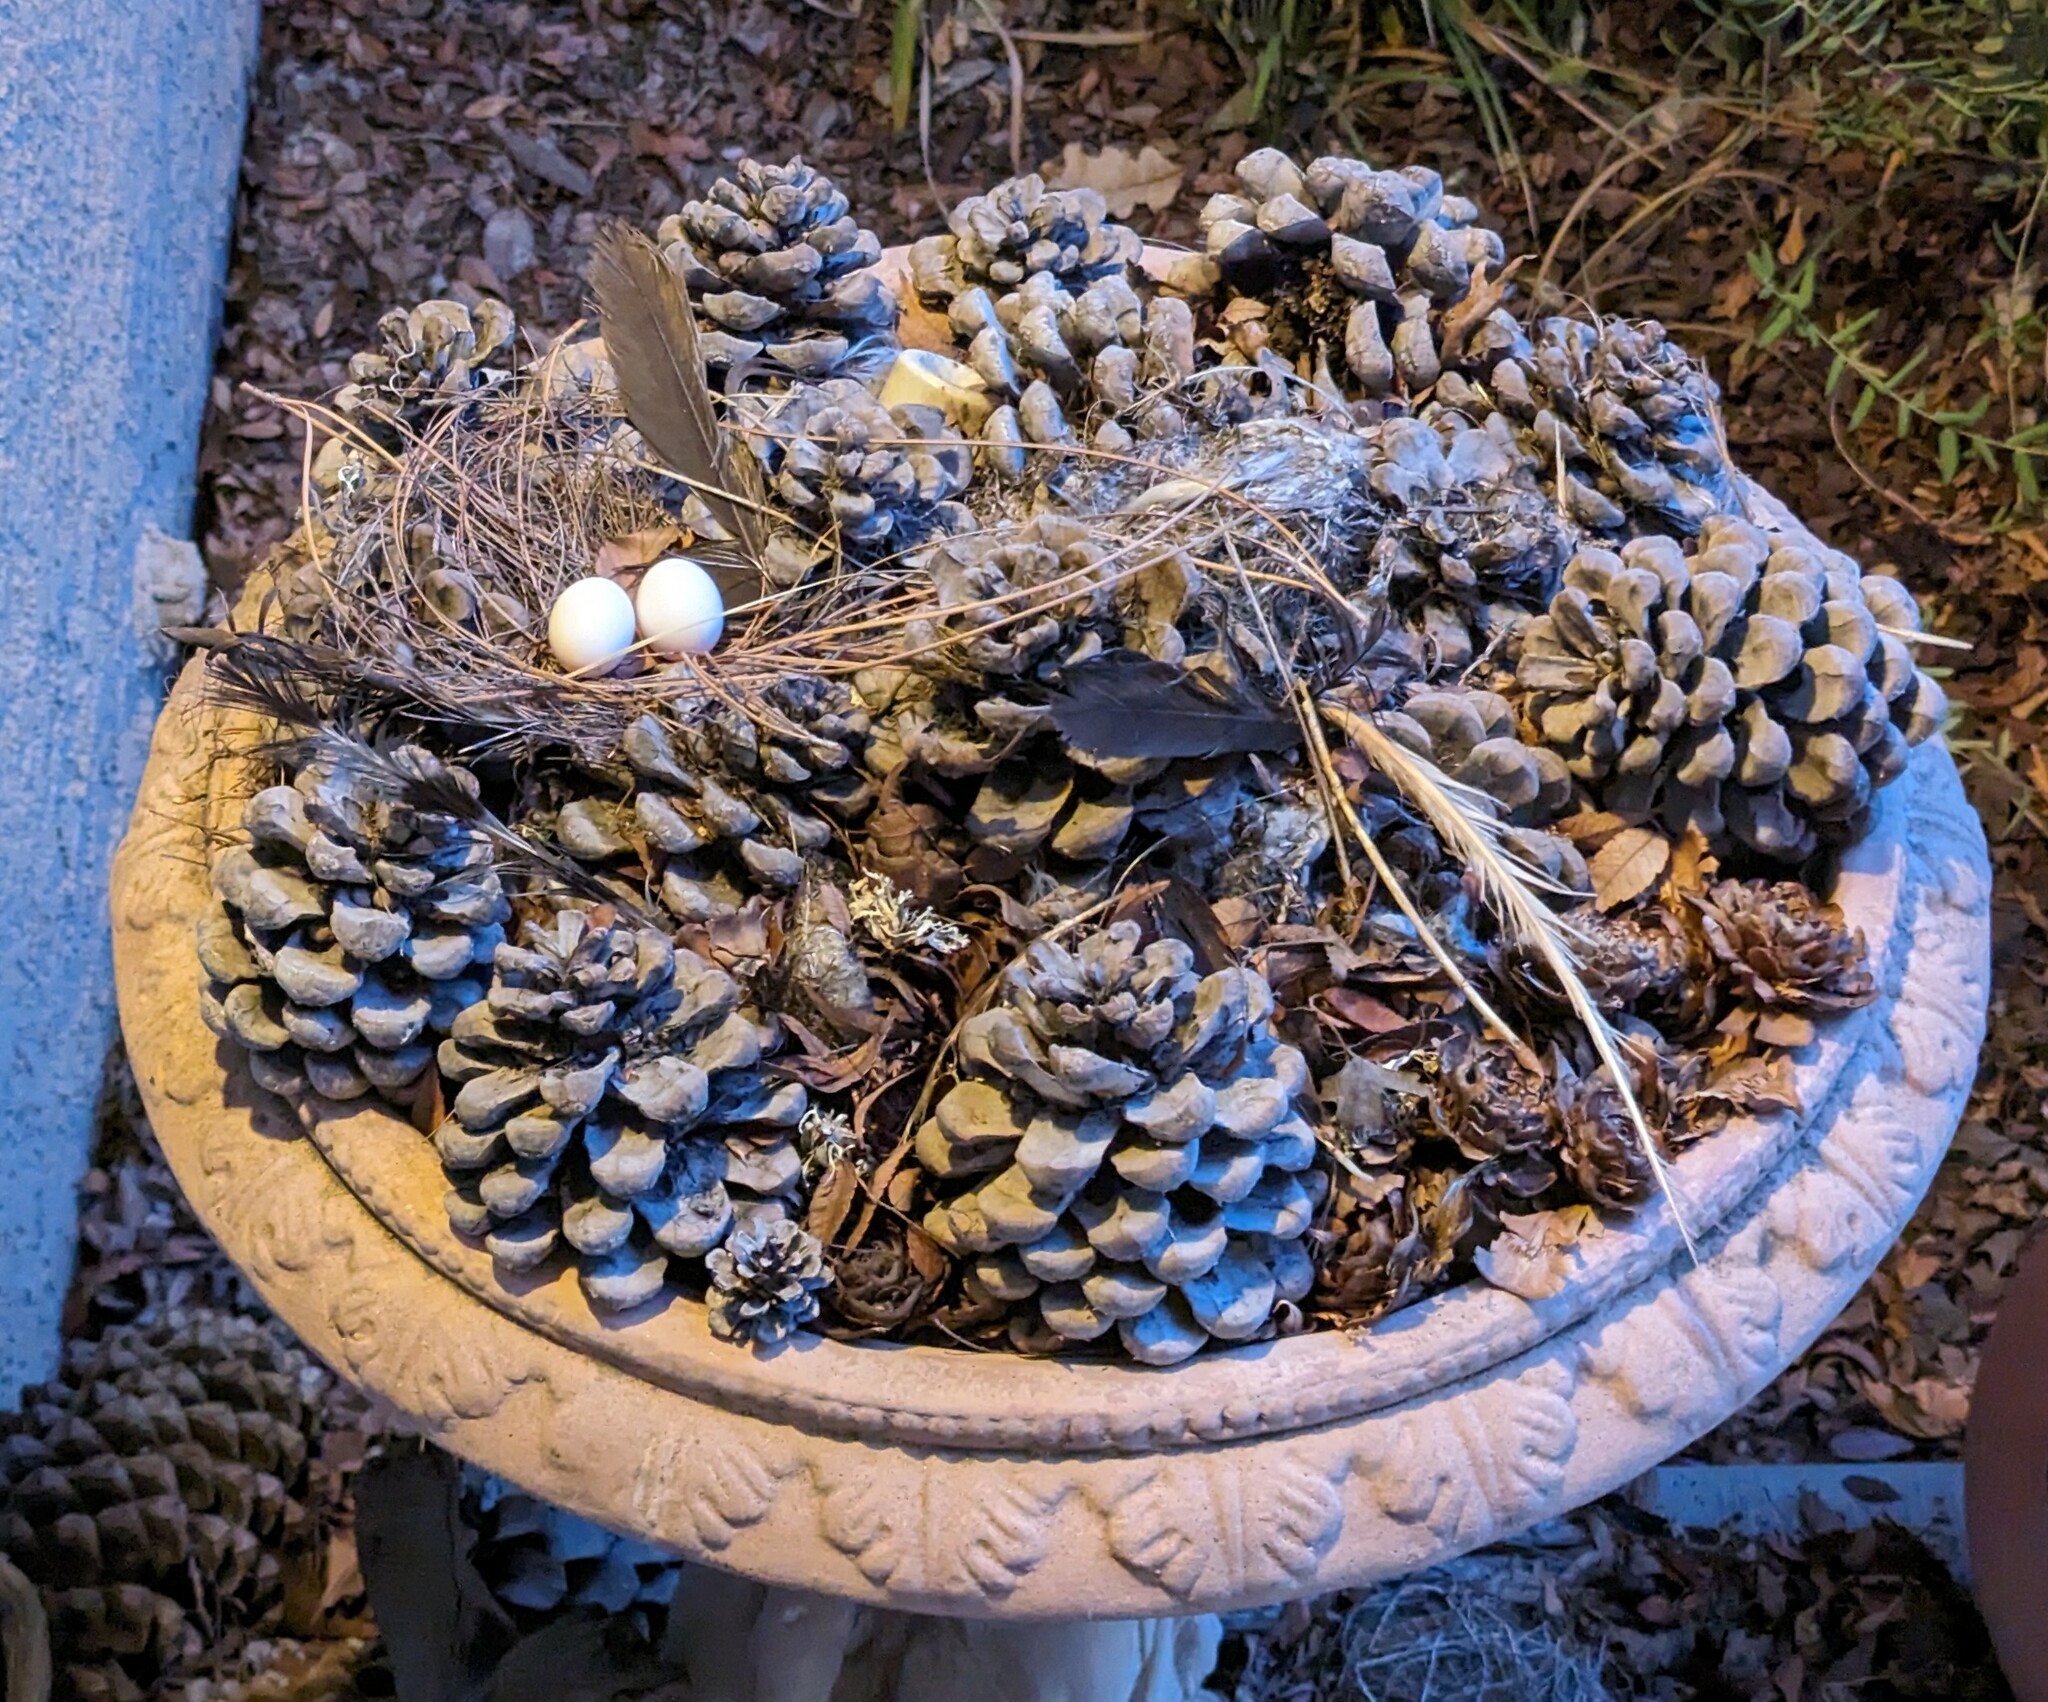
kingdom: Animalia
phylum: Chordata
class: Aves
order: Columbiformes
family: Columbidae
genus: Zenaida
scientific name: Zenaida macroura
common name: Mourning dove
